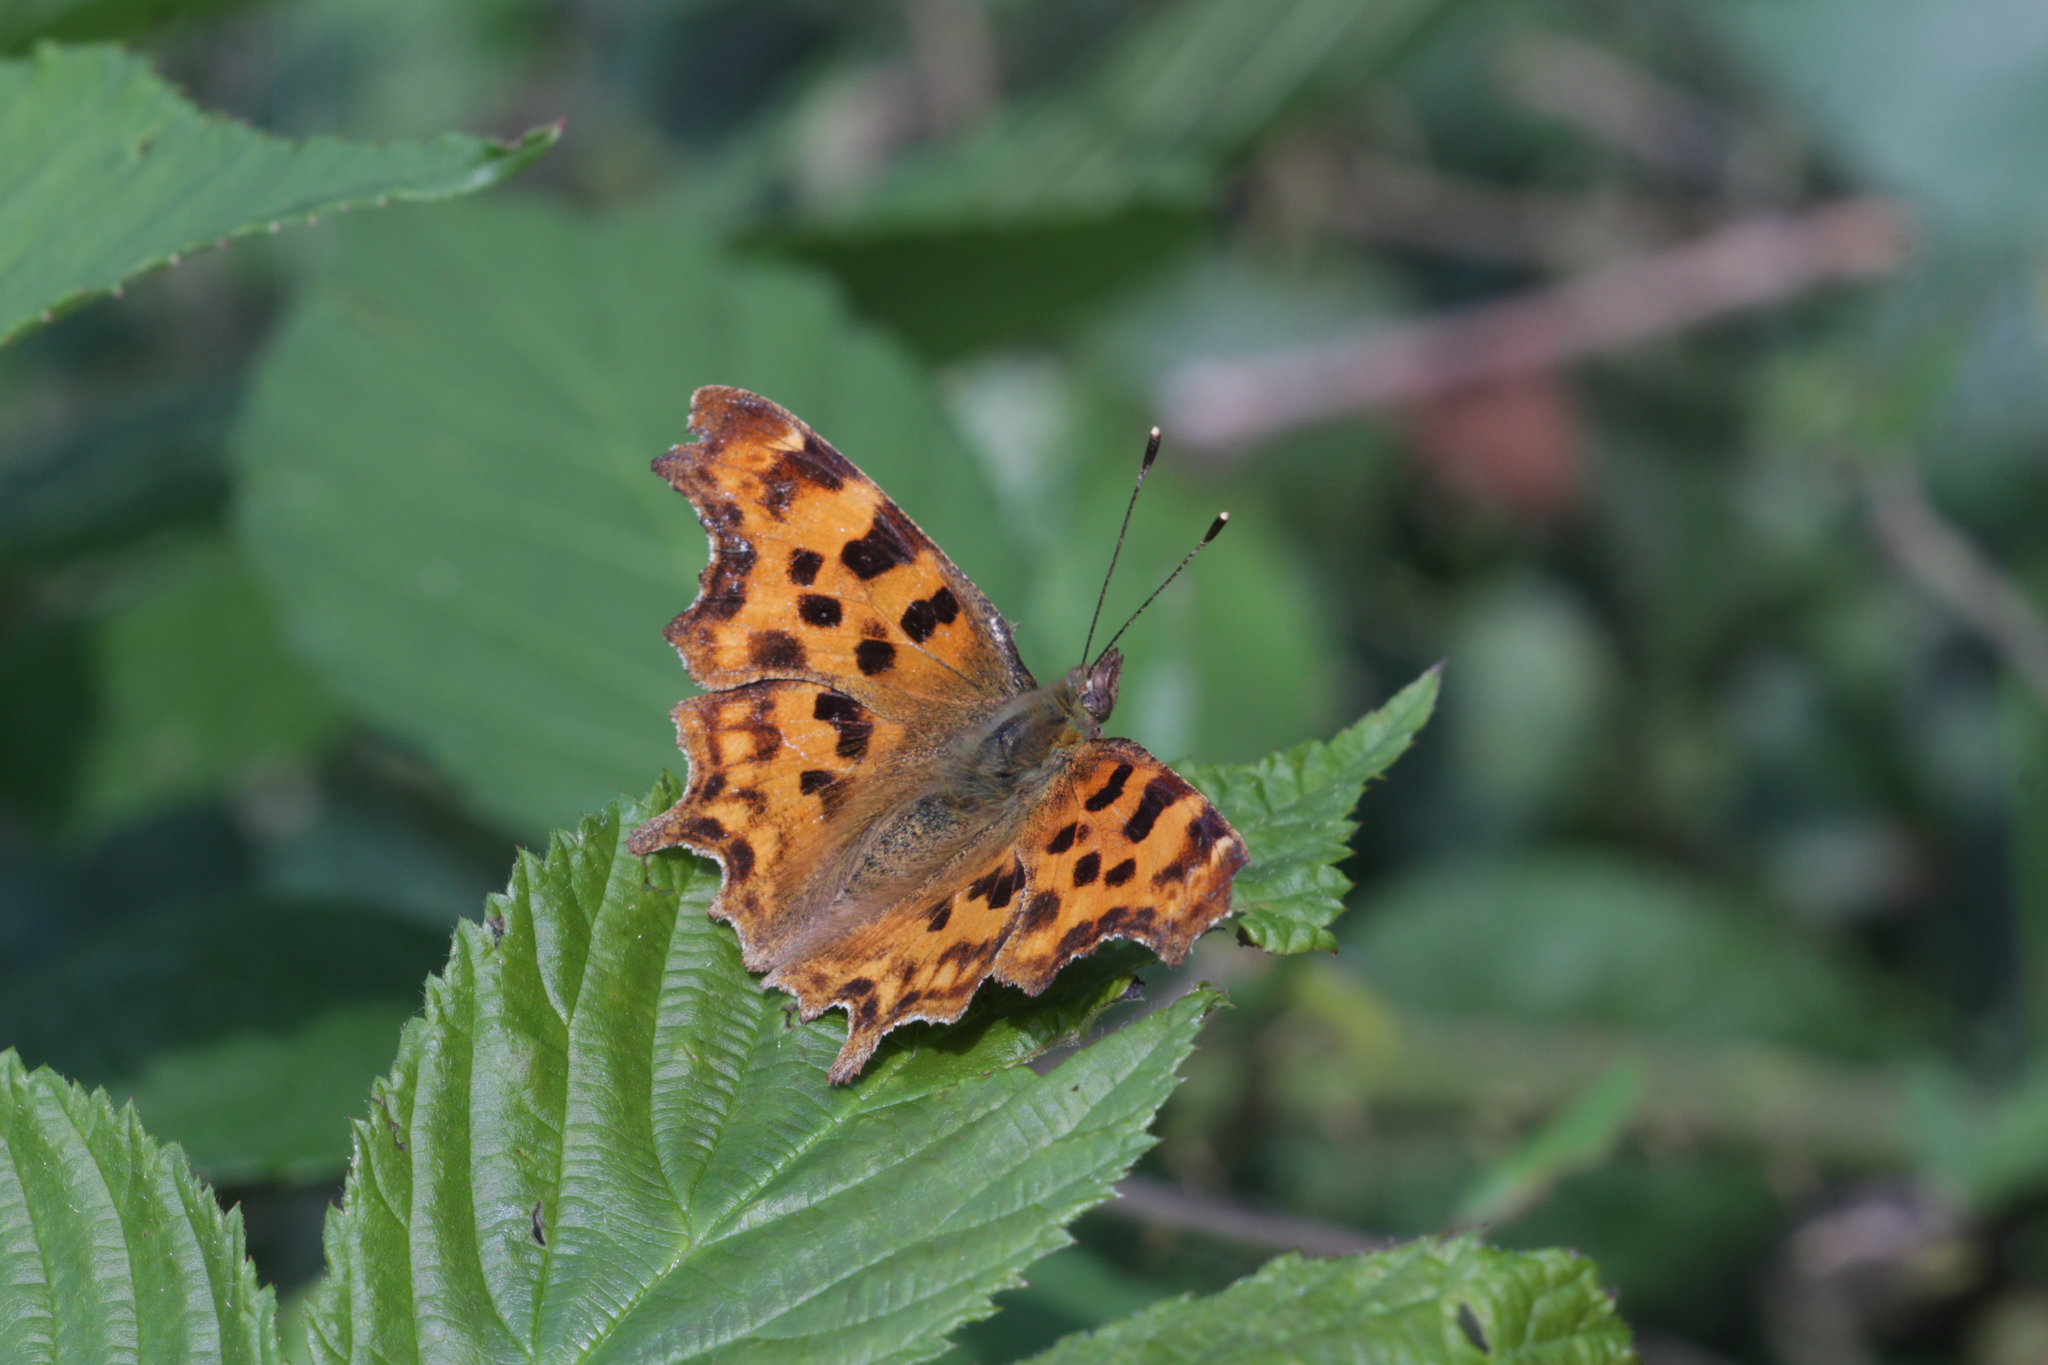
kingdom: Animalia
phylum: Arthropoda
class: Insecta
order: Lepidoptera
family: Nymphalidae
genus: Polygonia
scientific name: Polygonia c-album
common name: Comma
